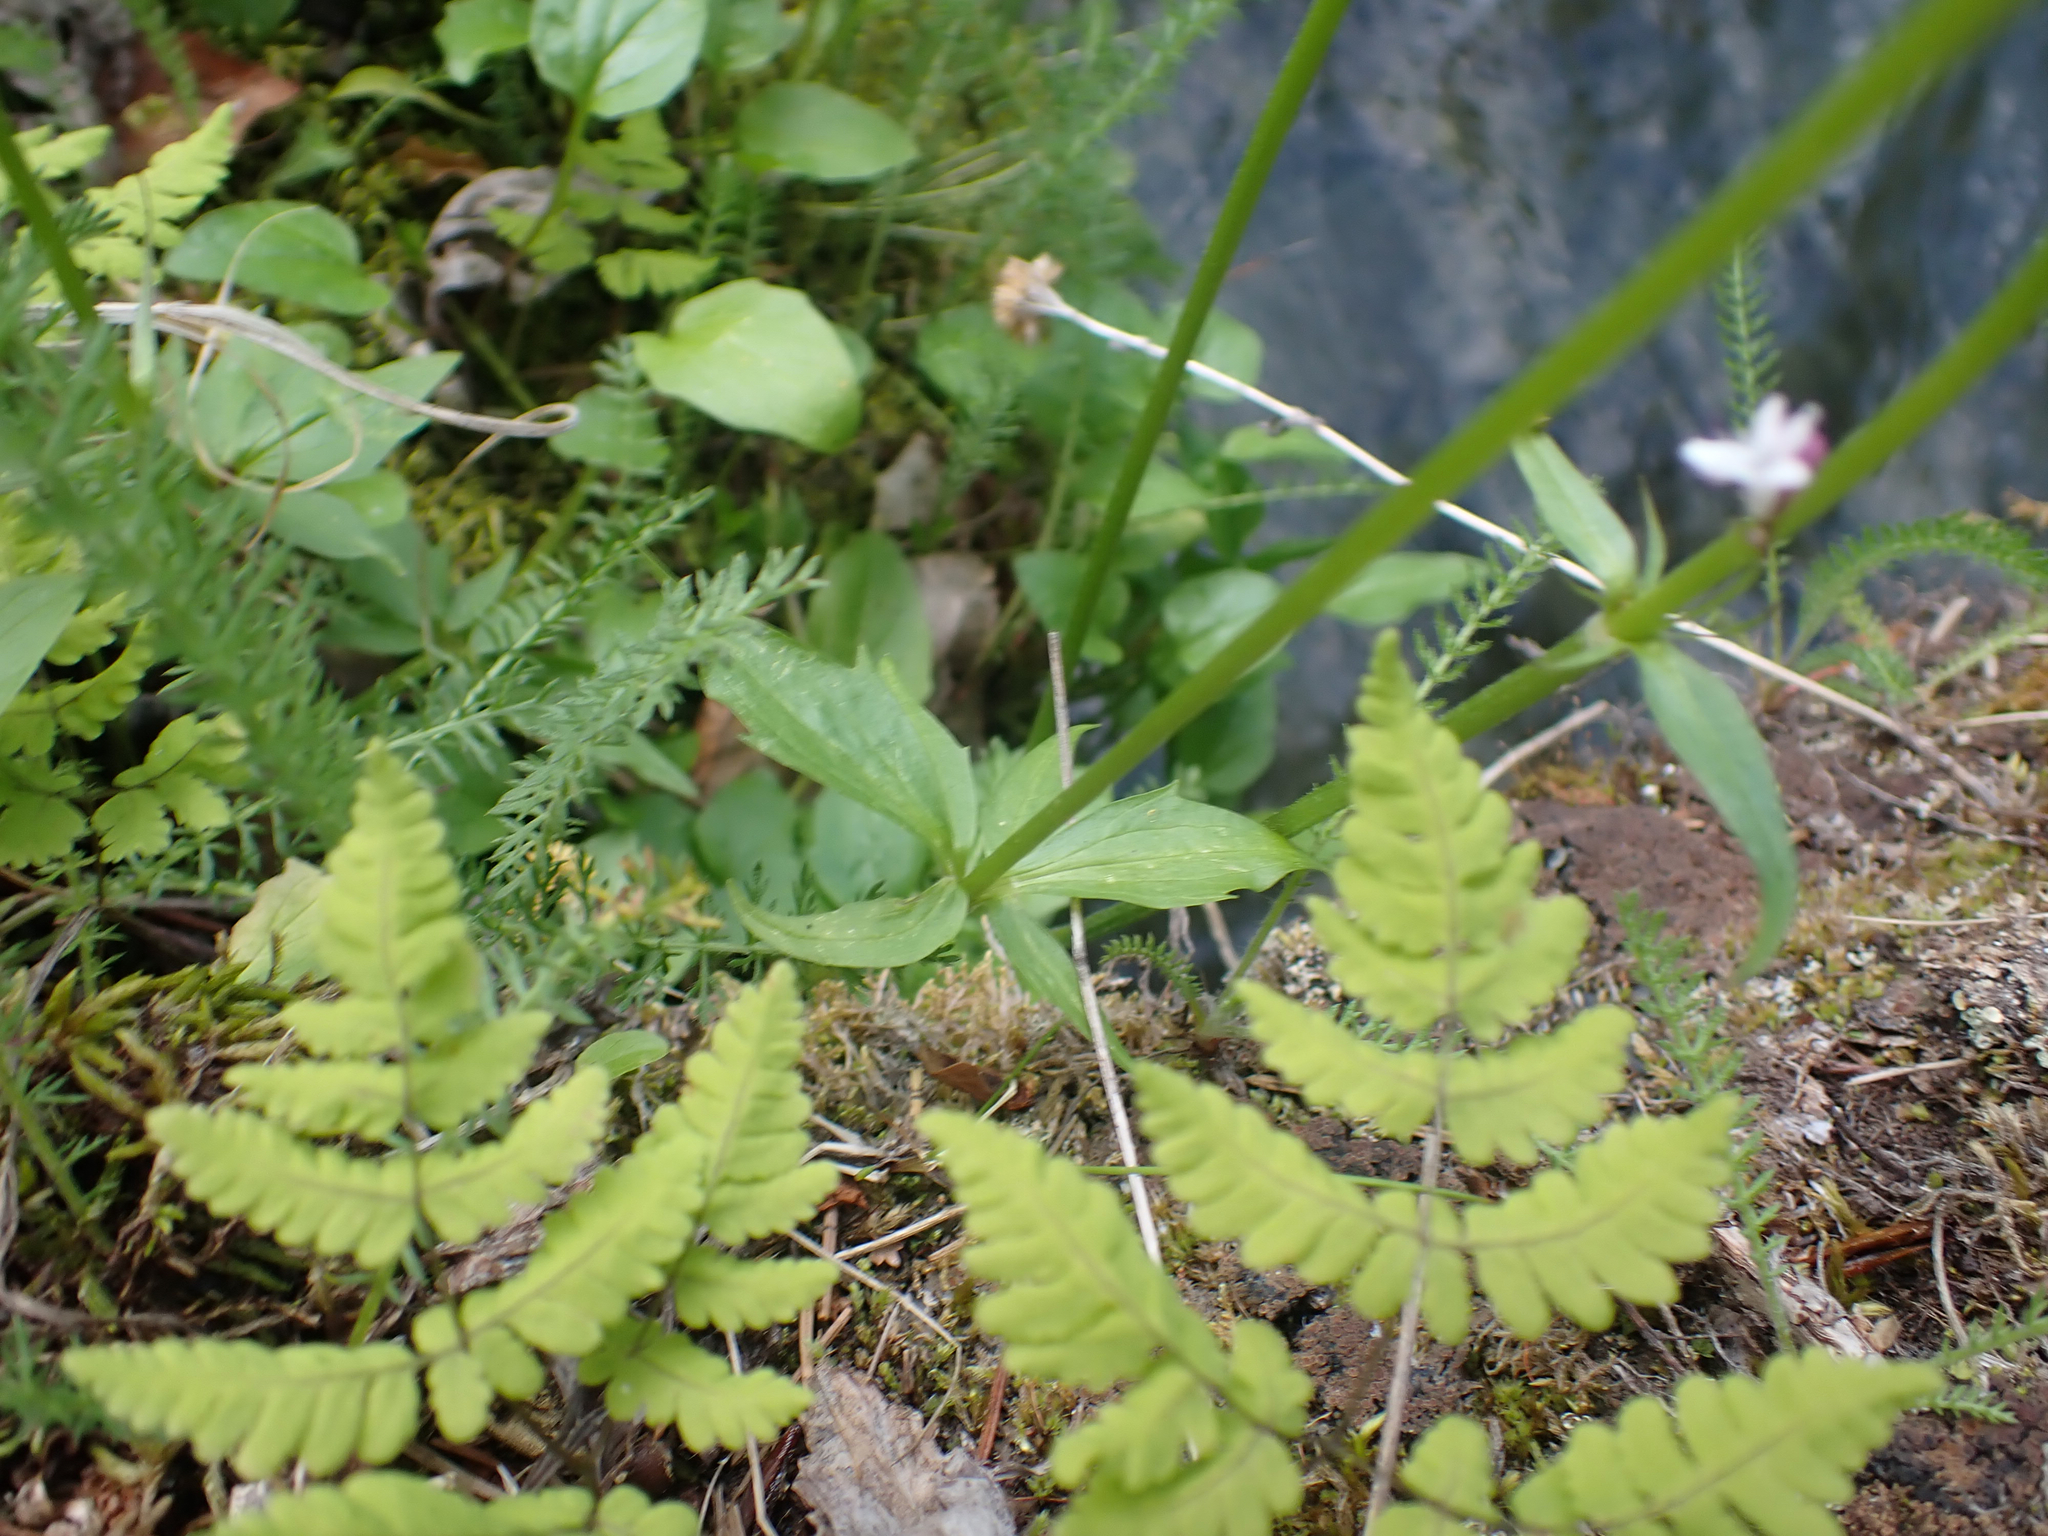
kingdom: Plantae
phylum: Tracheophyta
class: Magnoliopsida
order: Dipsacales
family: Caprifoliaceae
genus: Valeriana
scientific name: Valeriana capitata
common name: Capitate valerian
